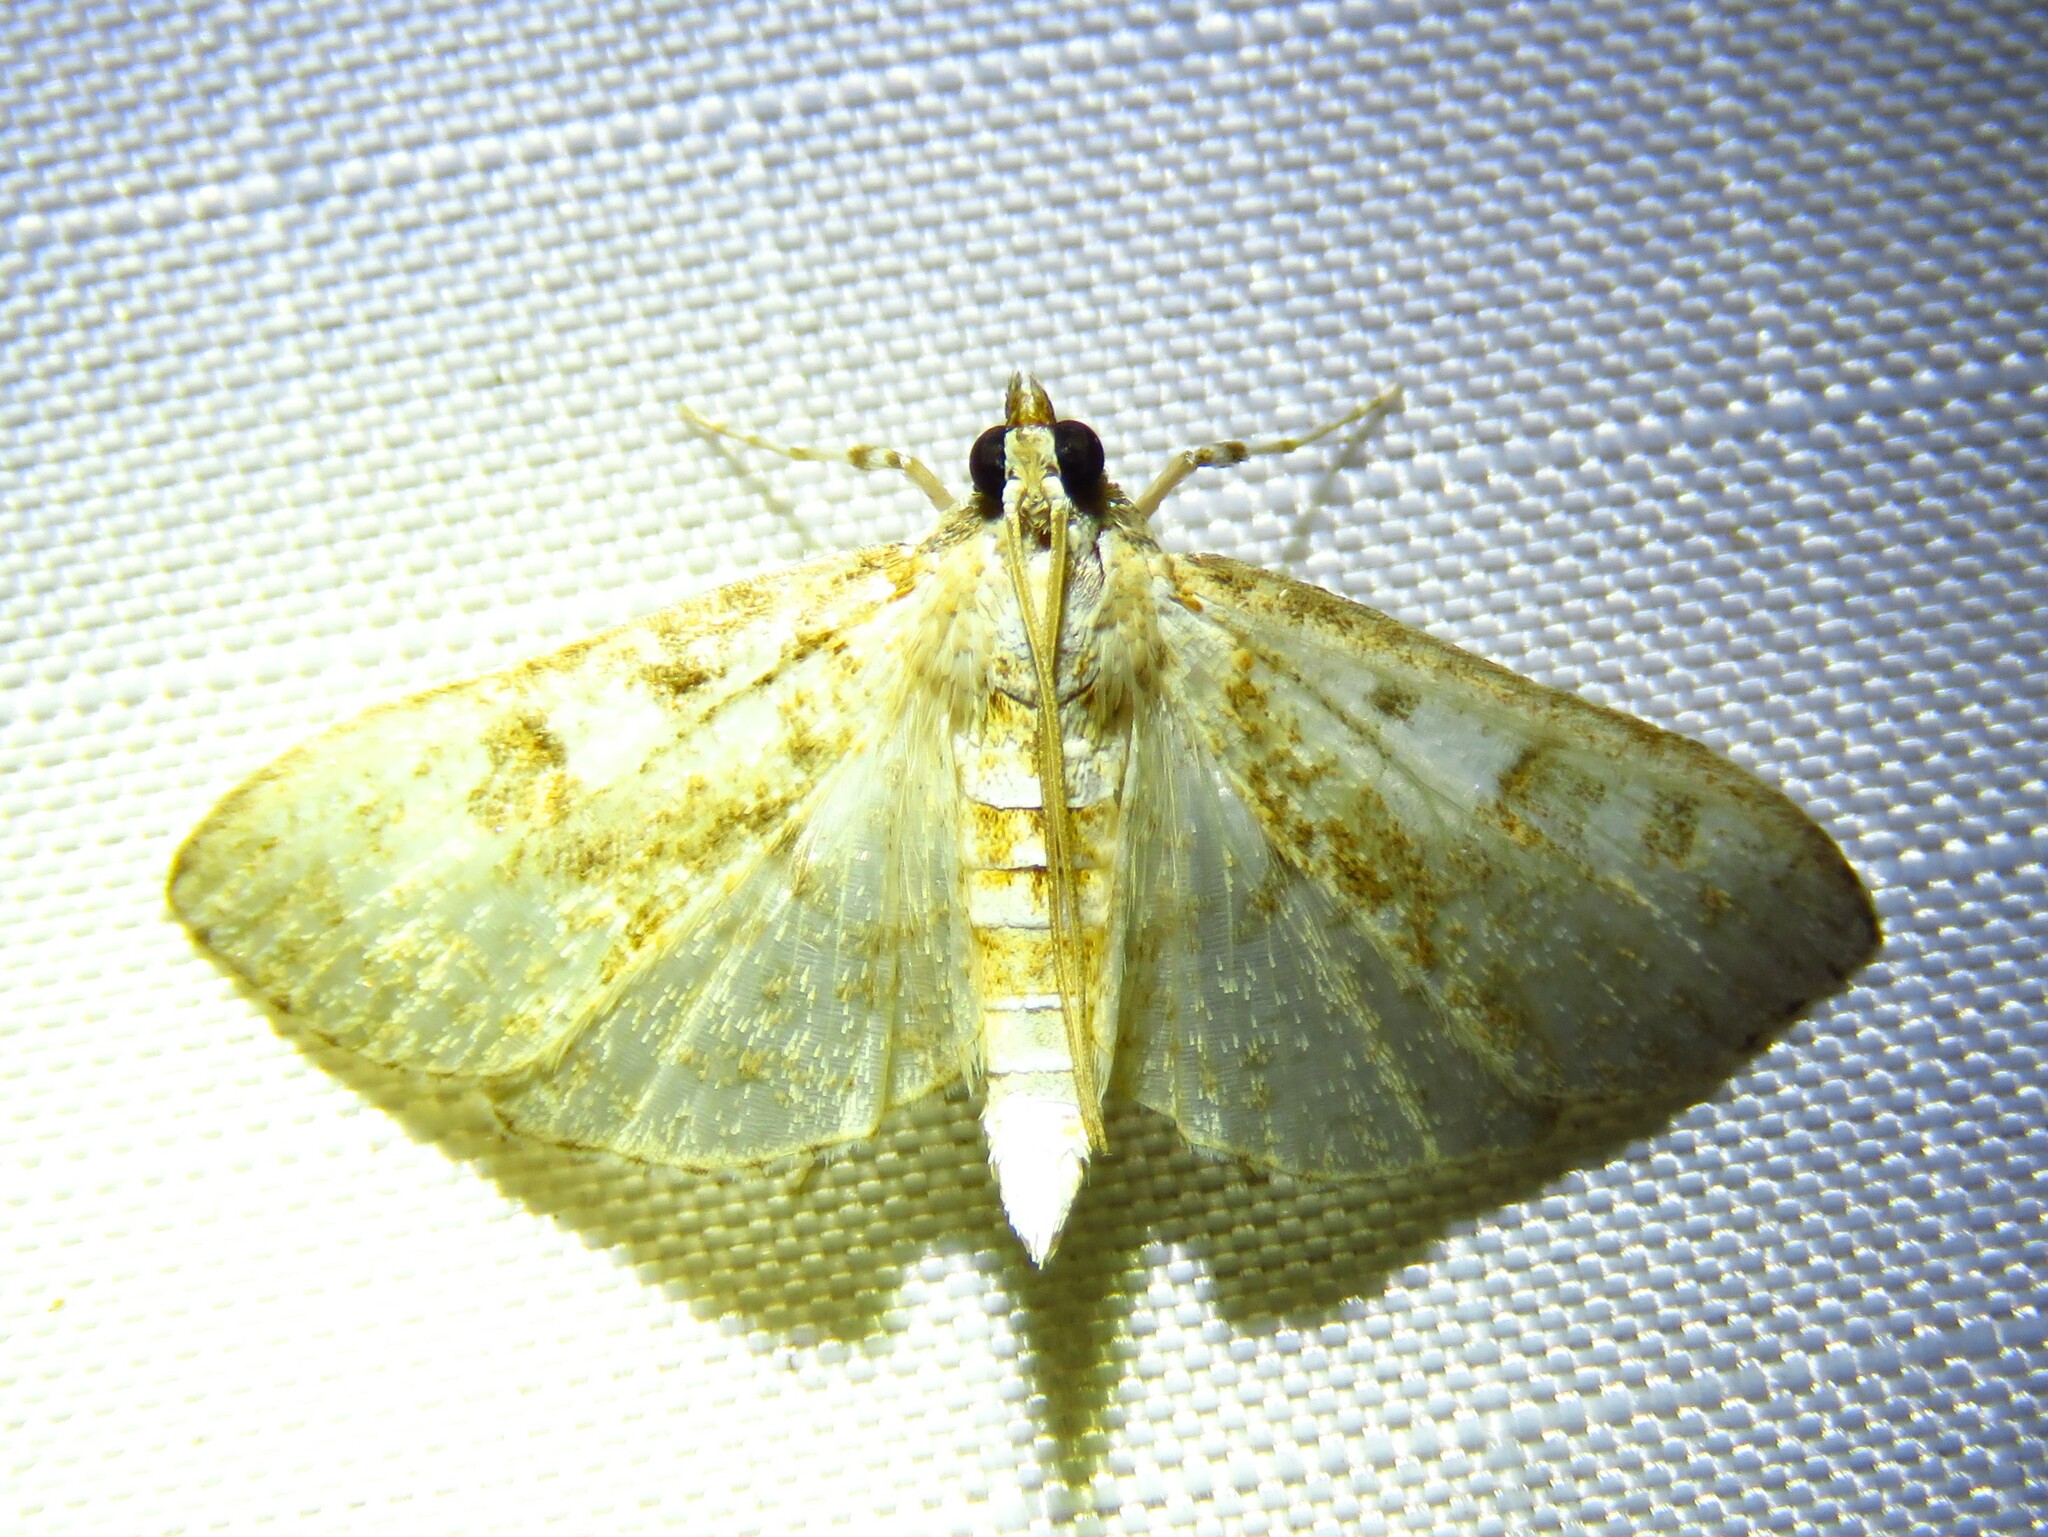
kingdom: Animalia
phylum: Arthropoda
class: Insecta
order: Lepidoptera
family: Crambidae
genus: Palpita
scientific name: Palpita freemanalis
